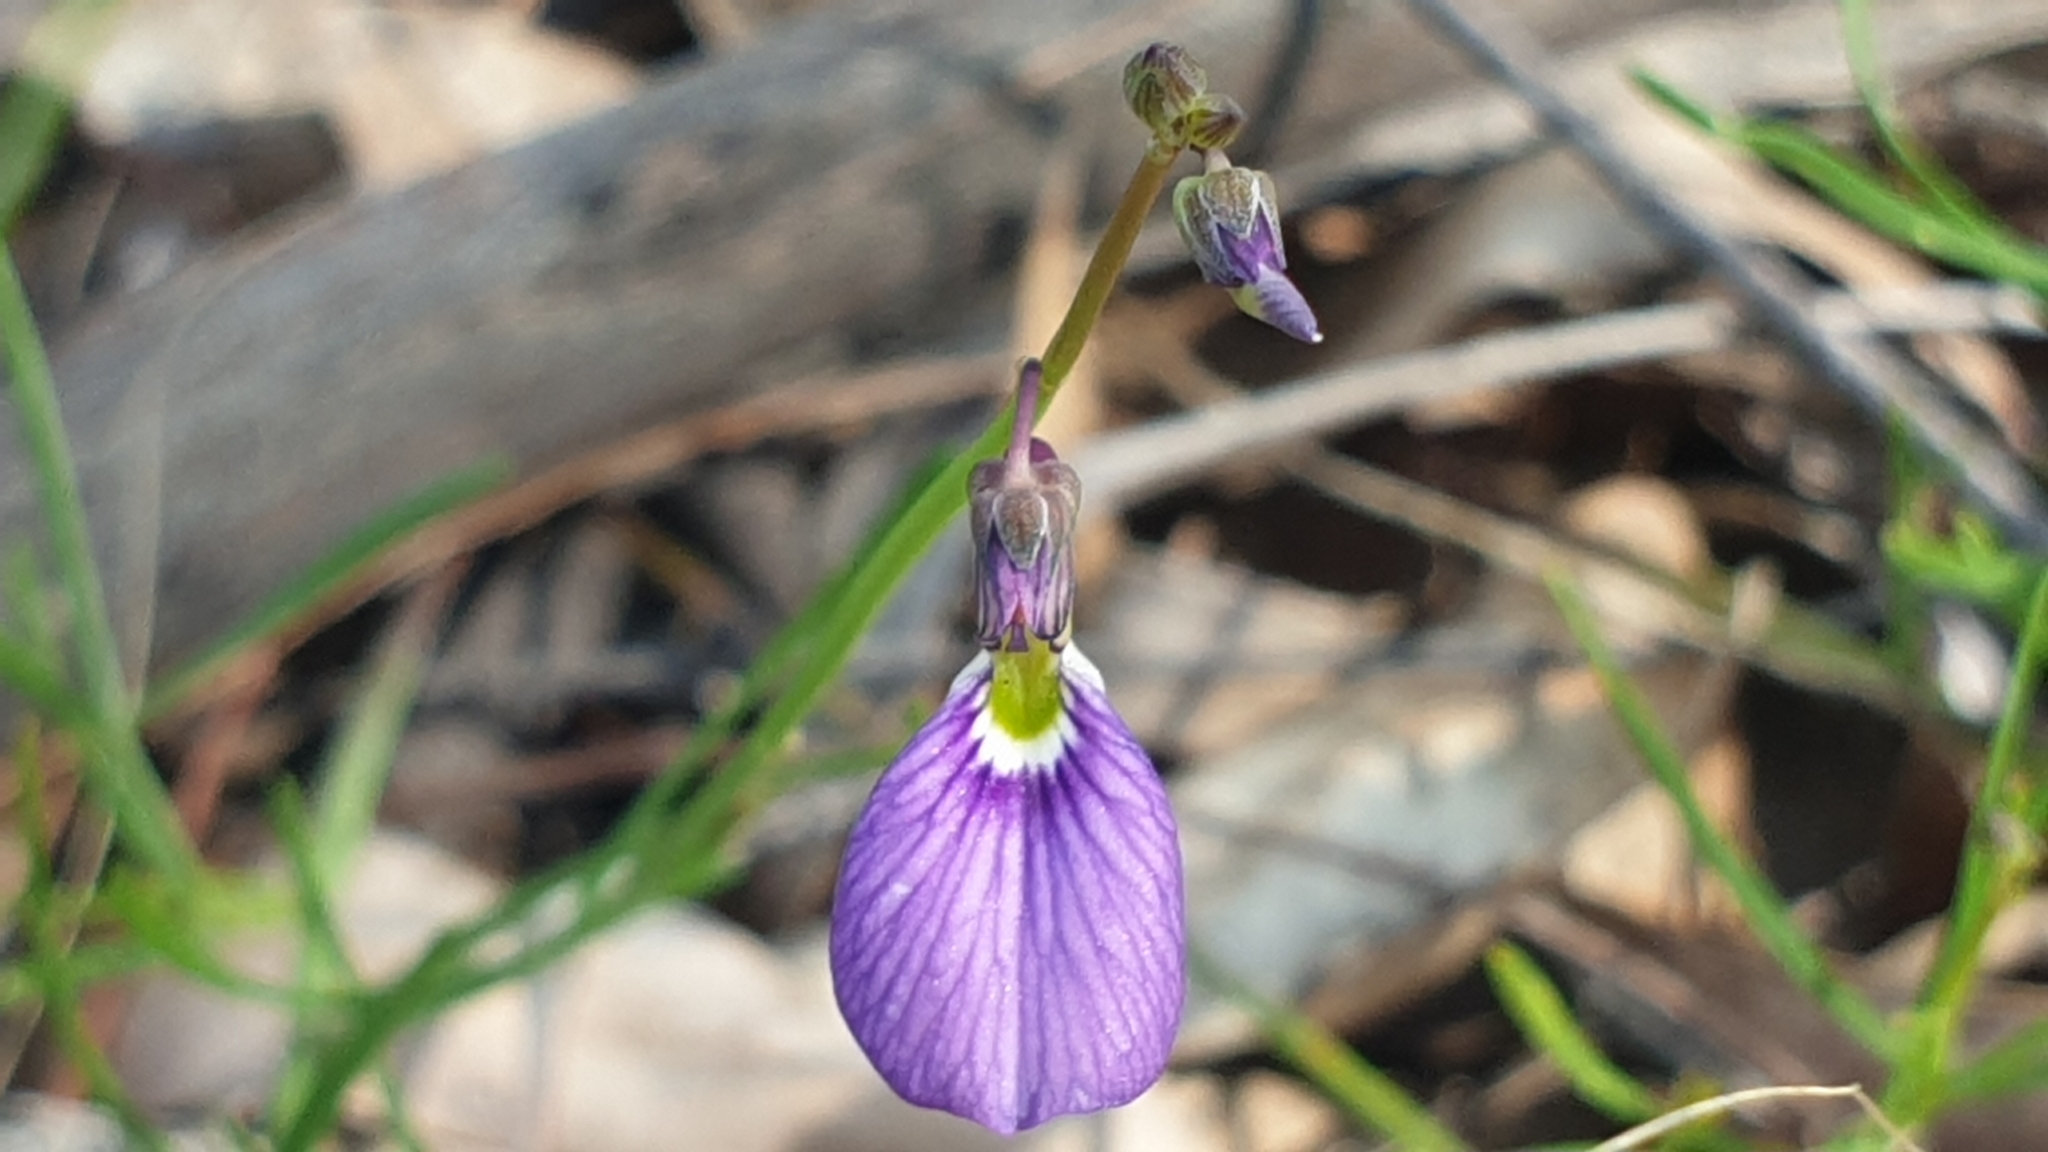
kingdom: Plantae
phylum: Tracheophyta
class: Magnoliopsida
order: Malpighiales
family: Violaceae
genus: Pigea
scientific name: Pigea monopetala
